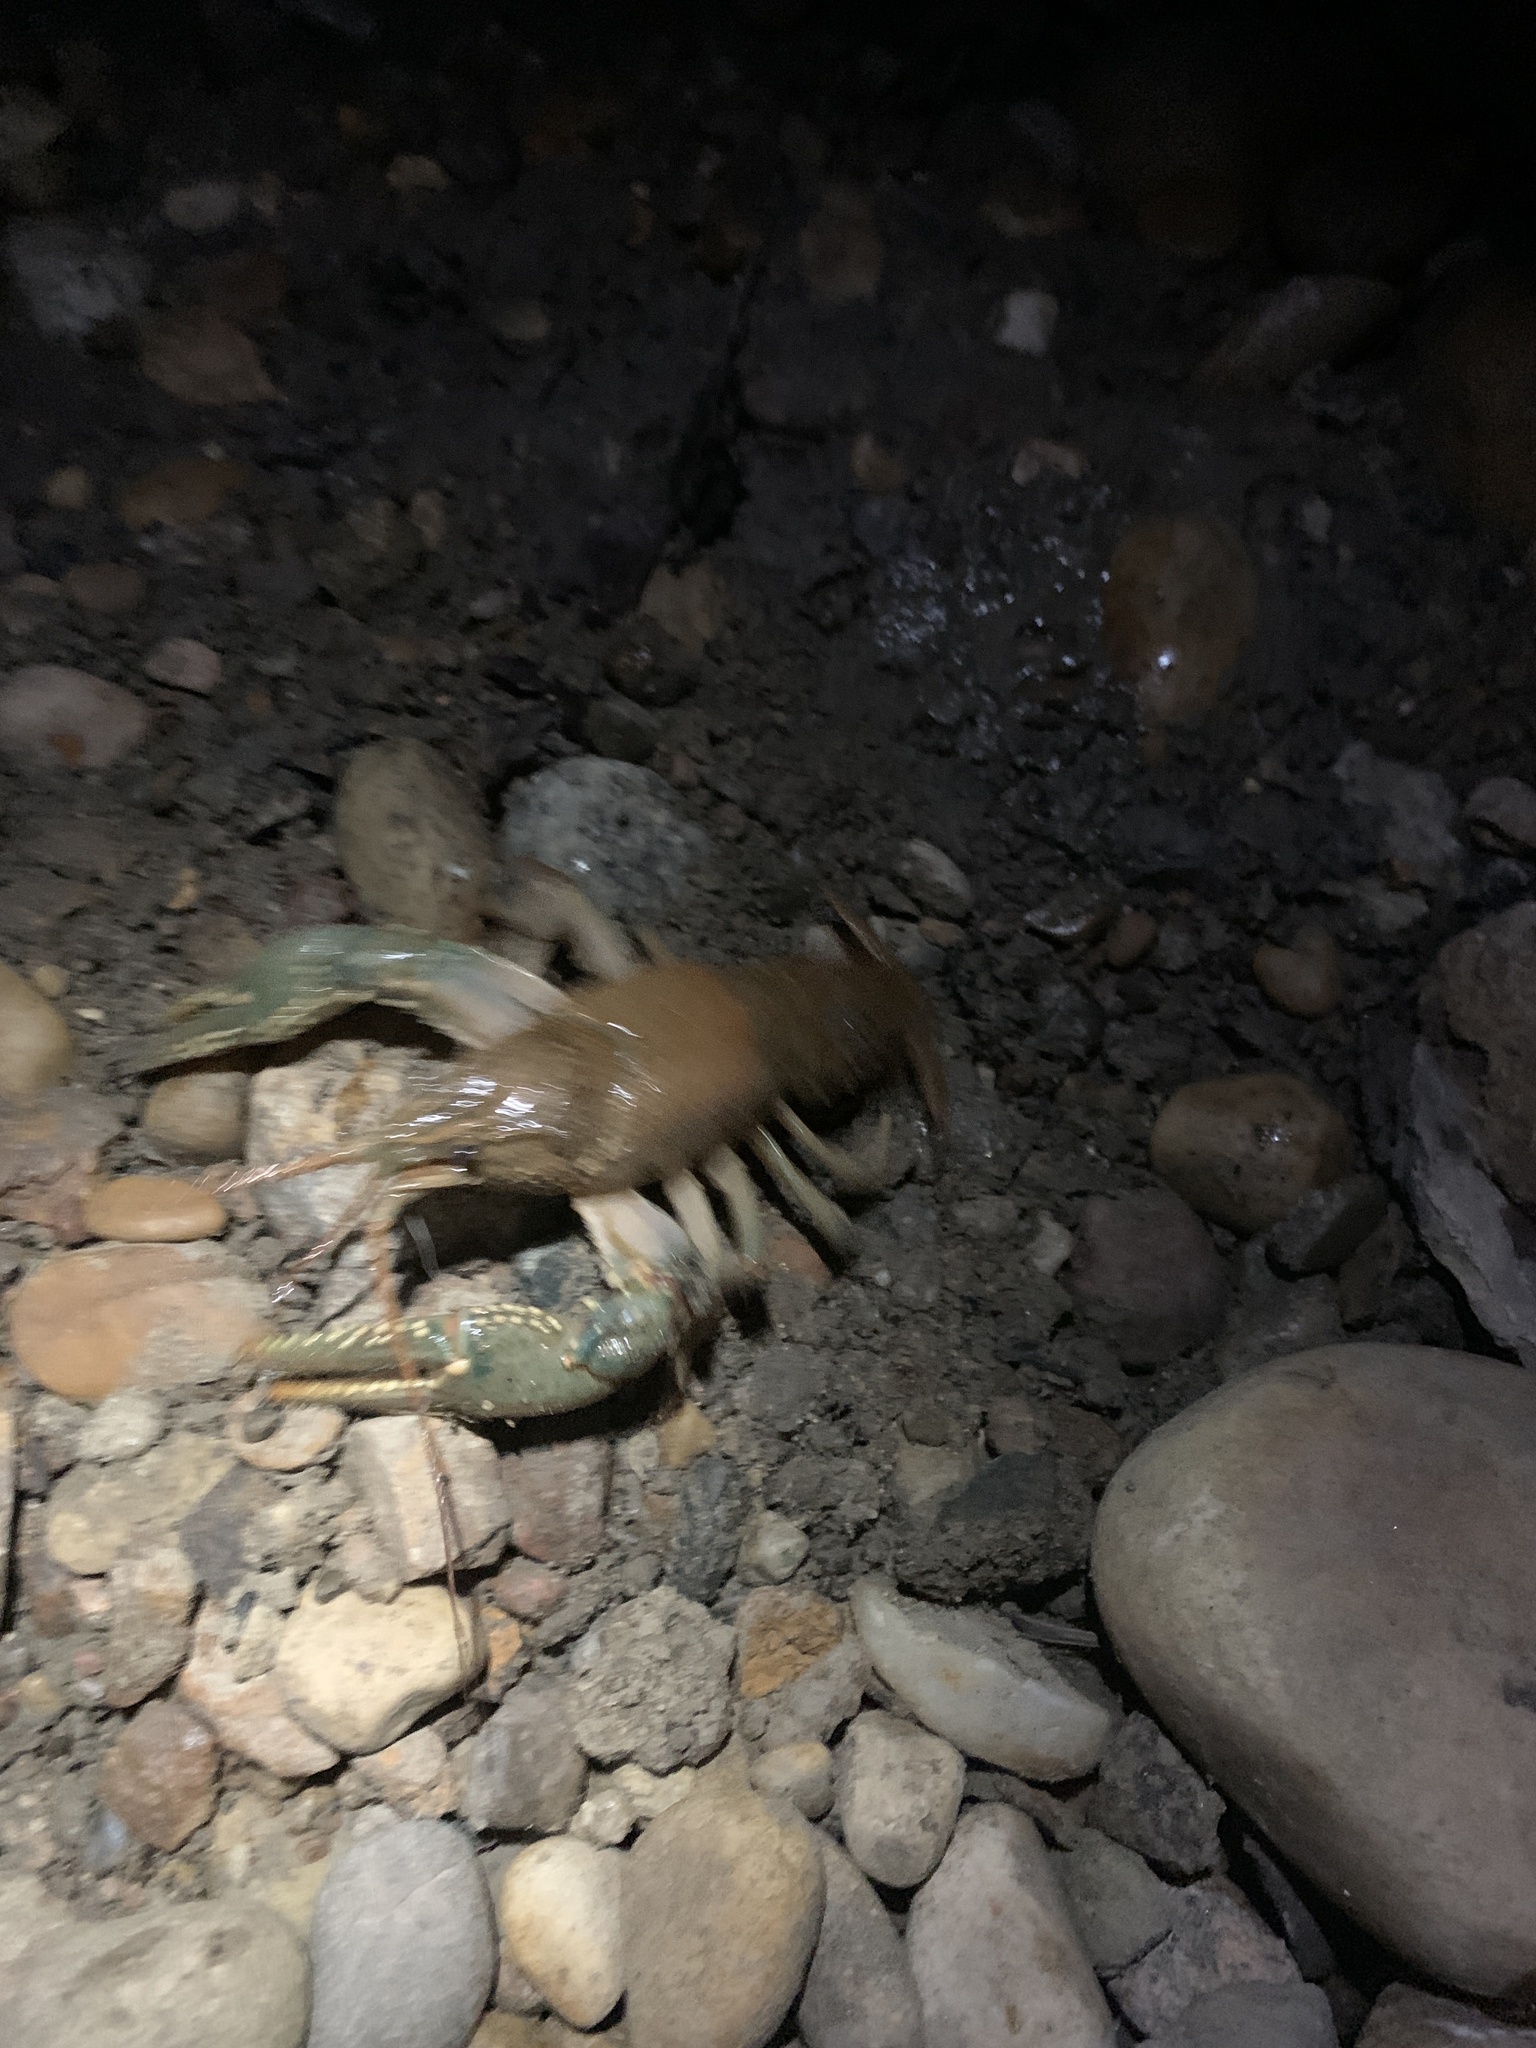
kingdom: Animalia
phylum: Arthropoda
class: Malacostraca
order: Decapoda
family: Cambaridae
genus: Faxonius
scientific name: Faxonius virilis
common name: Virile crayfish
